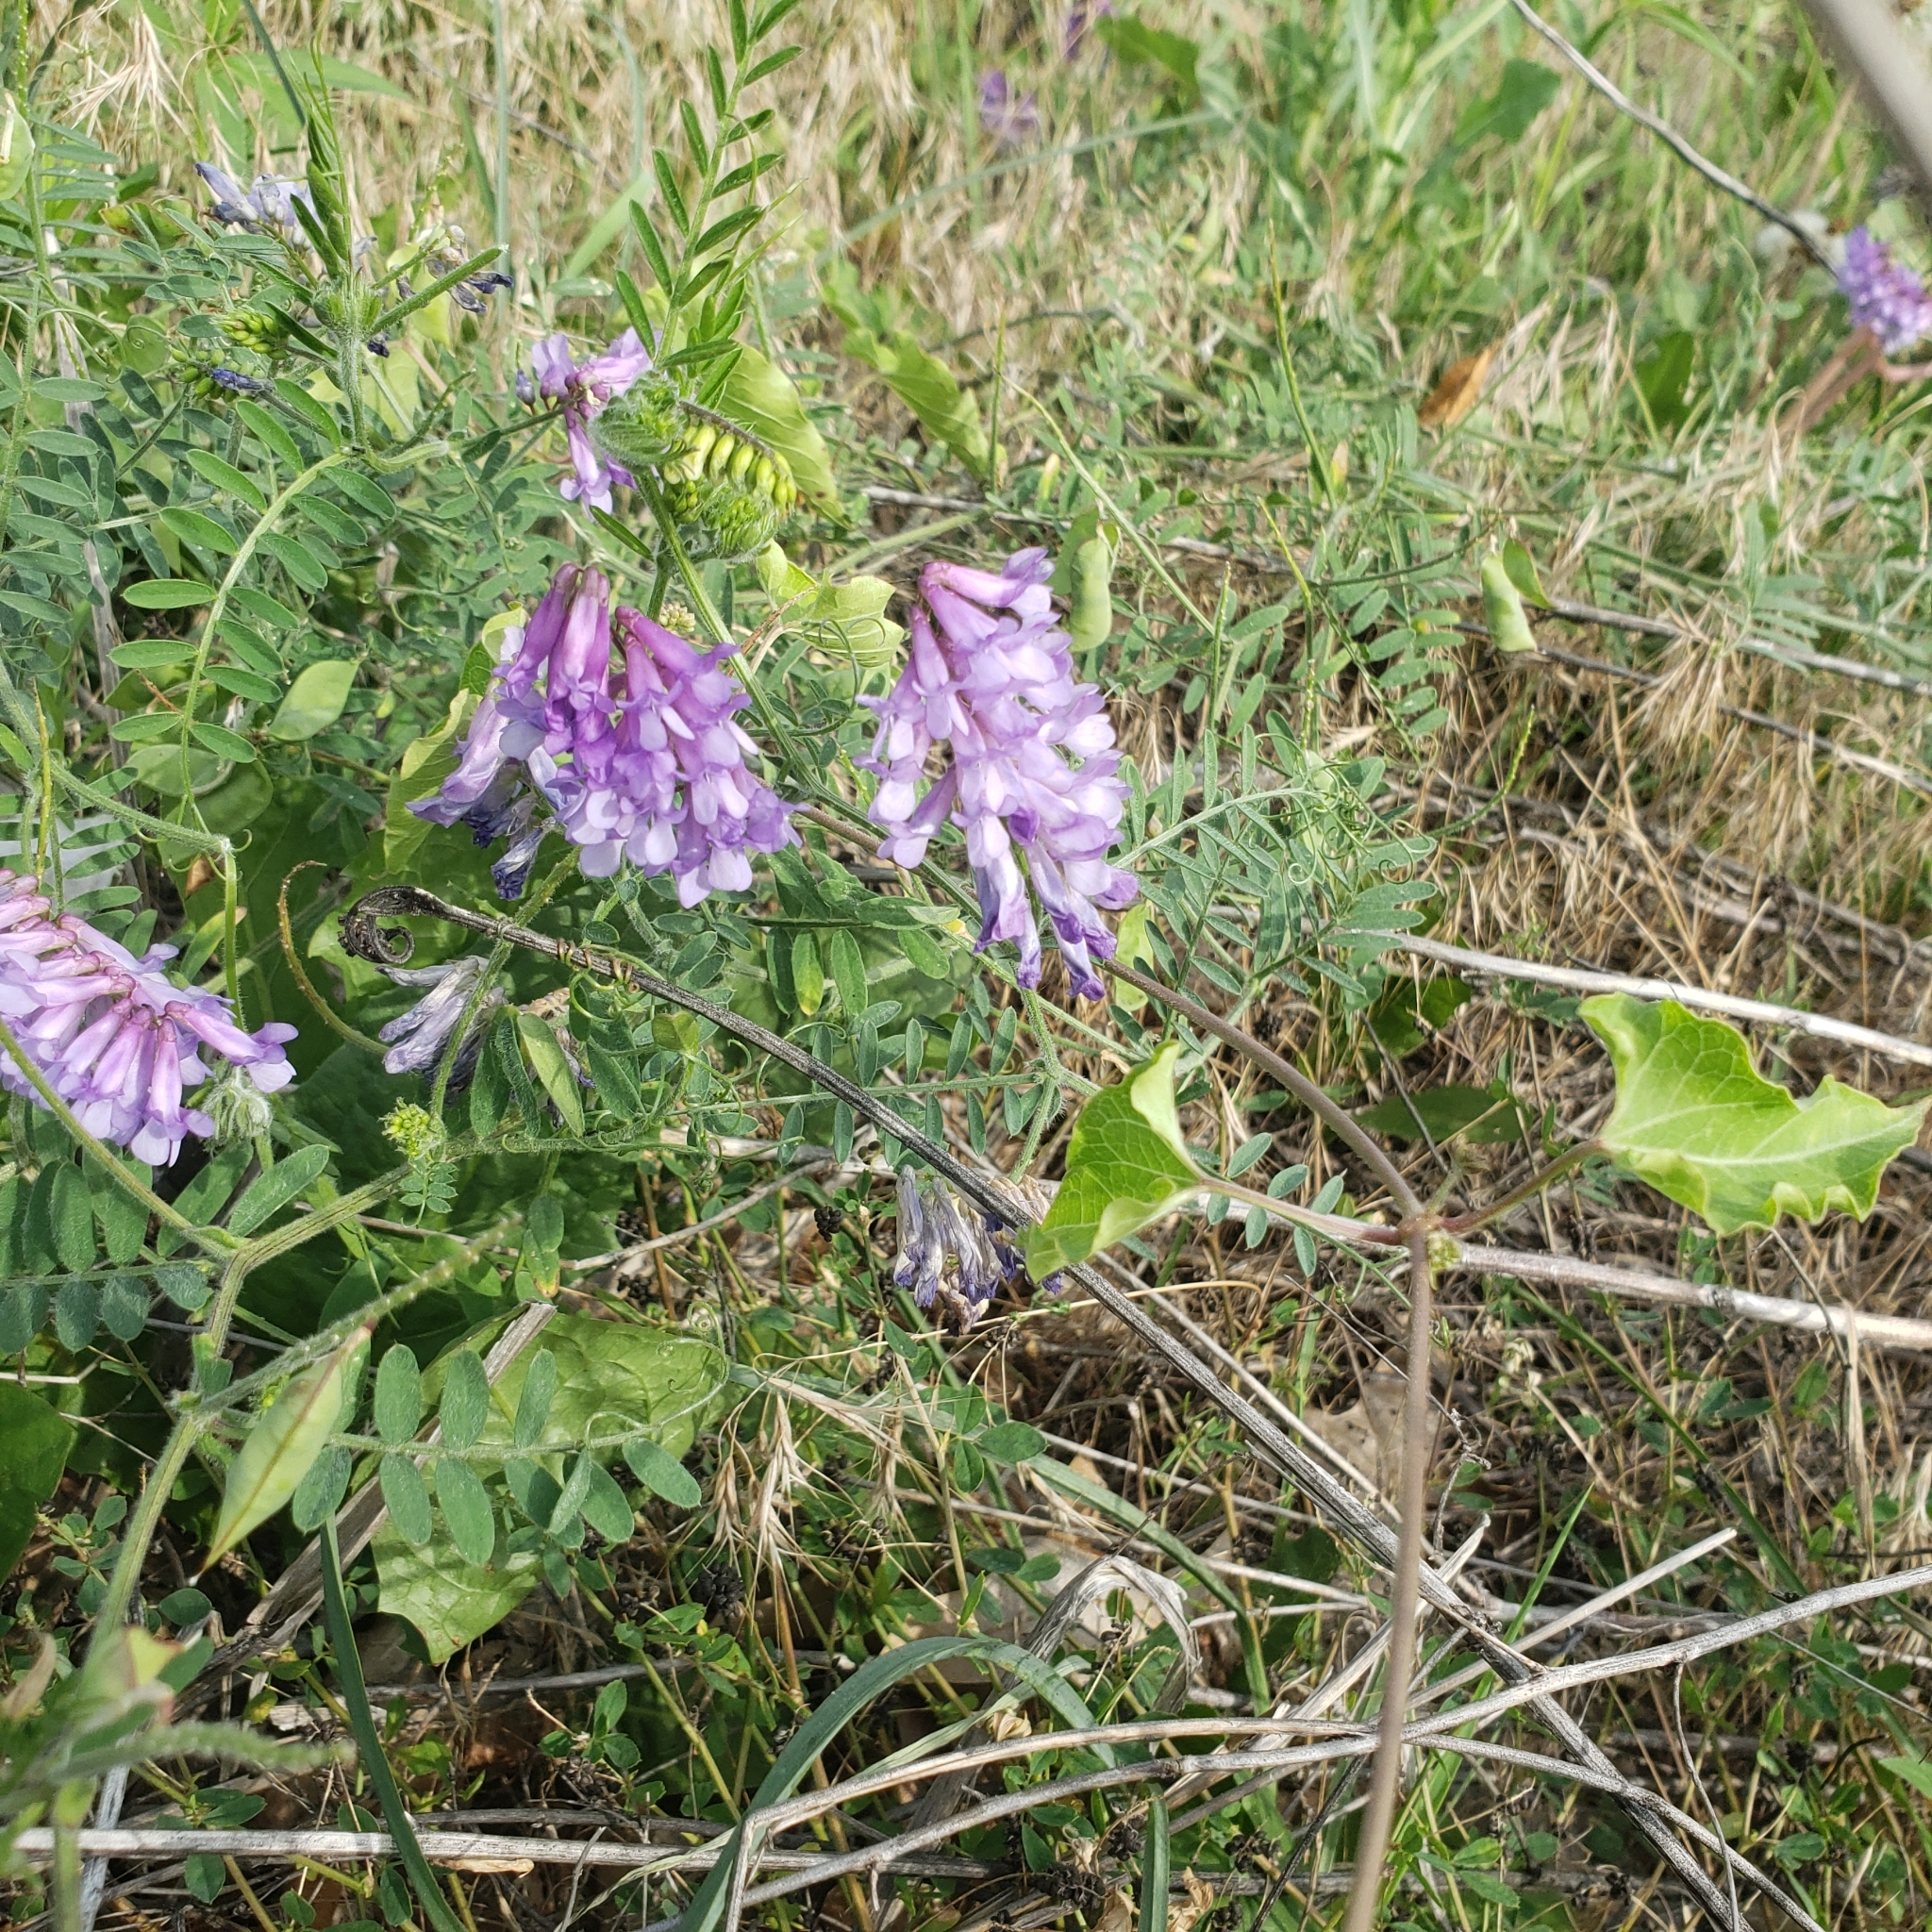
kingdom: Plantae
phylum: Tracheophyta
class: Magnoliopsida
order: Fabales
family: Fabaceae
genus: Vicia
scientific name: Vicia villosa
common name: Fodder vetch
